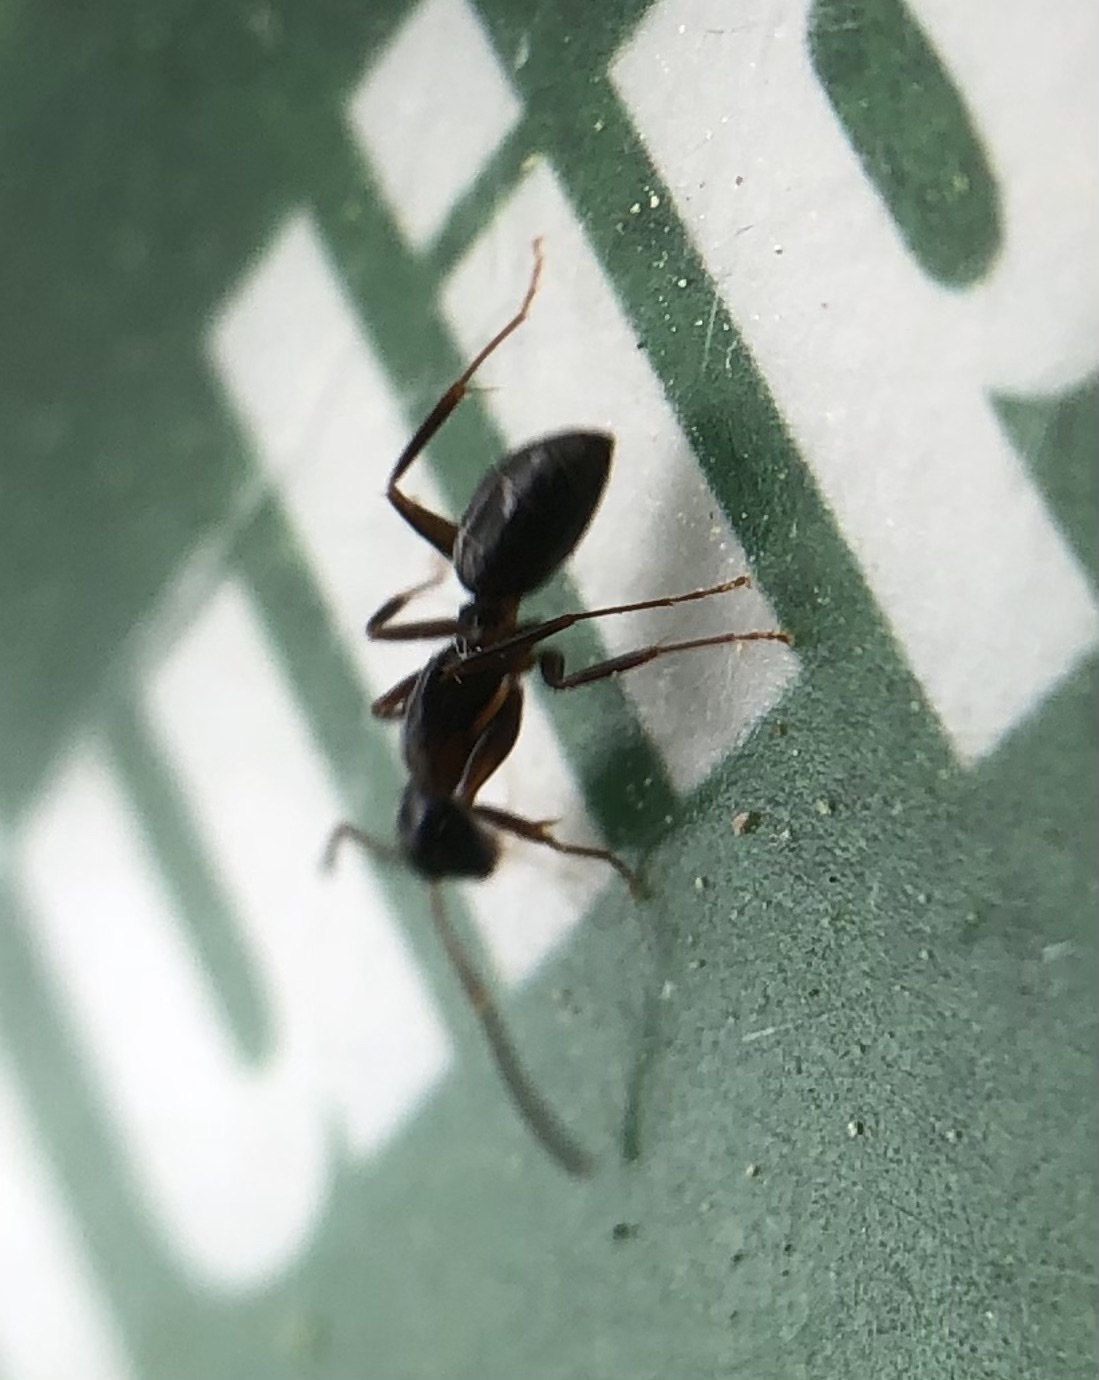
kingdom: Animalia
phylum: Arthropoda
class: Insecta
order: Hymenoptera
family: Formicidae
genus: Myrmentoma
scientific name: Myrmentoma
